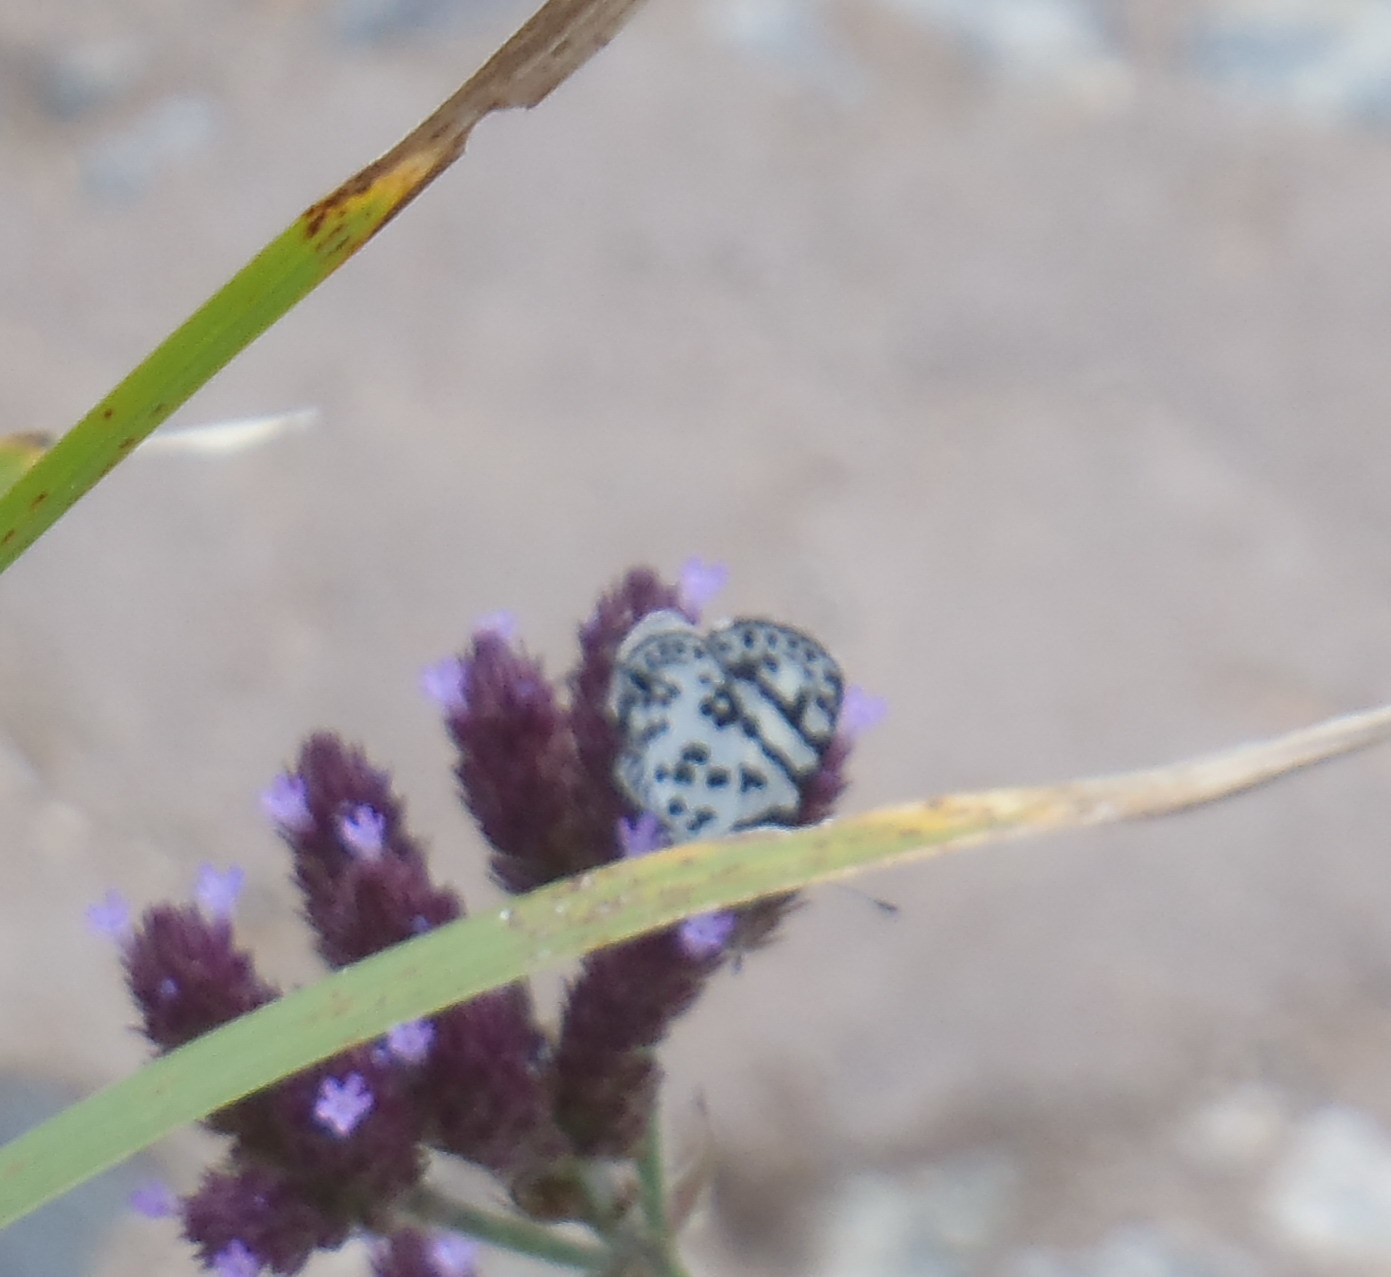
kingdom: Animalia
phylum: Arthropoda
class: Insecta
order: Lepidoptera
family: Lycaenidae
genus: Castalius
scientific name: Castalius melaena
